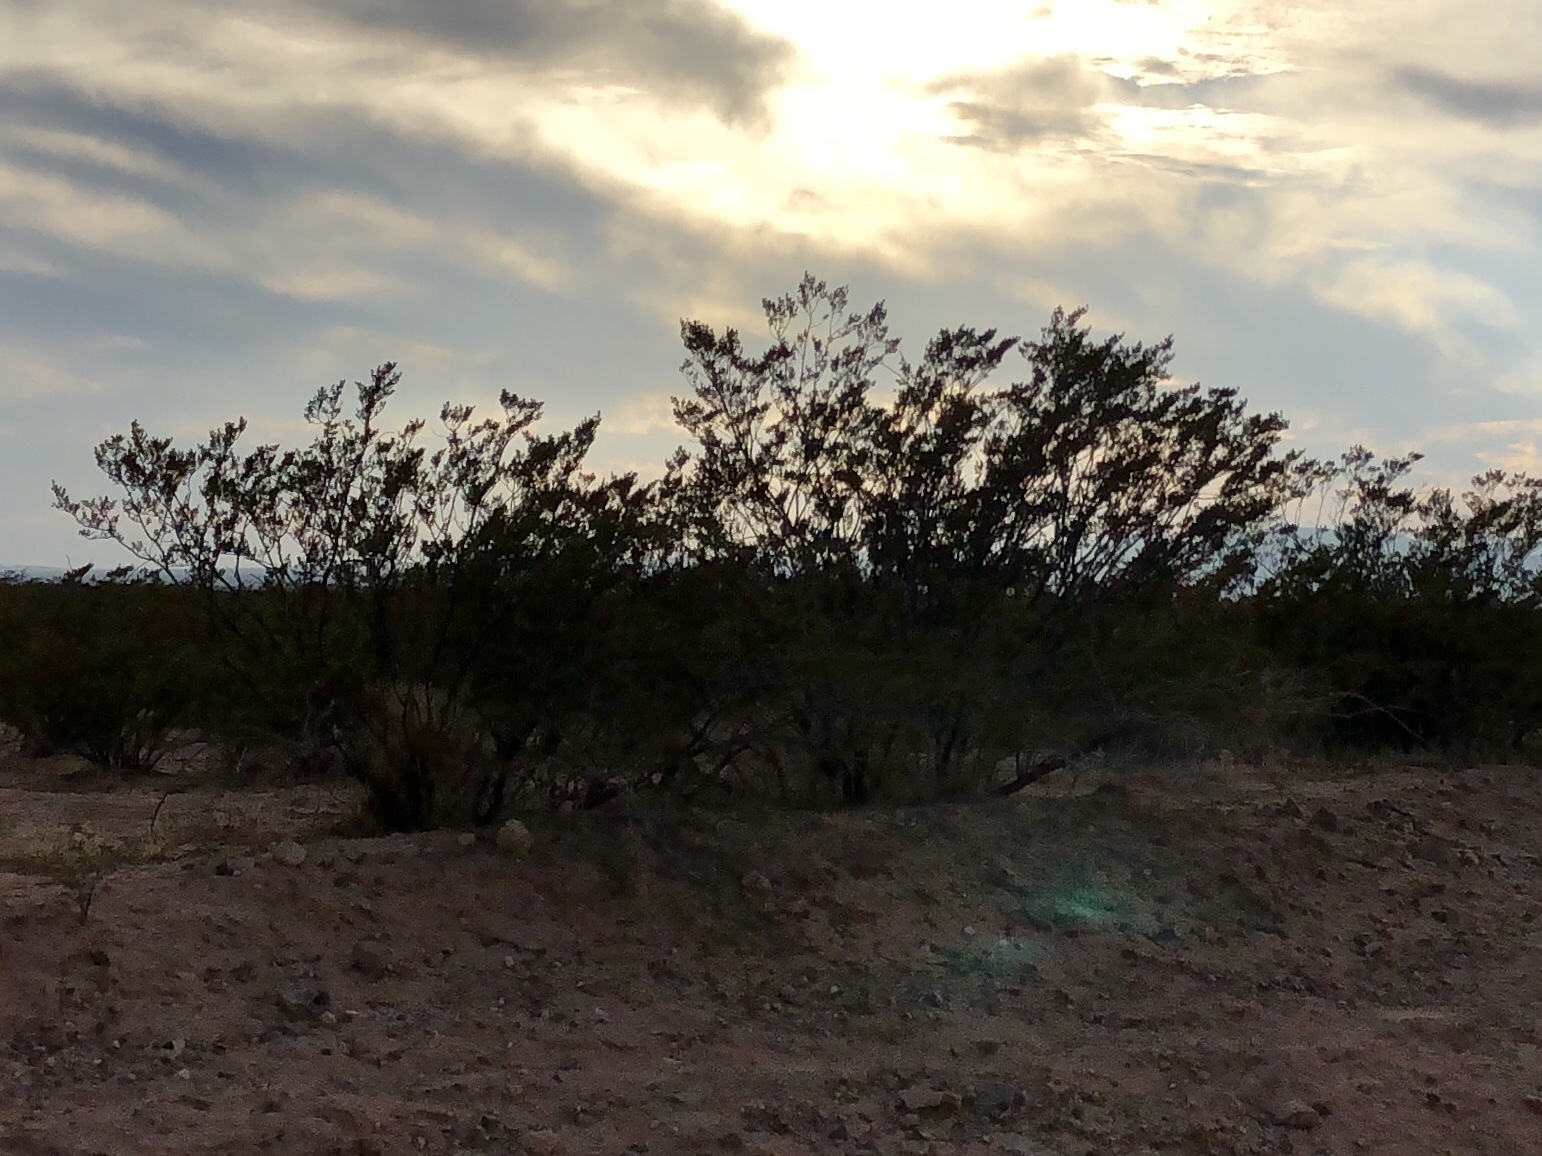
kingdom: Plantae
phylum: Tracheophyta
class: Magnoliopsida
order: Zygophyllales
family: Zygophyllaceae
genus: Larrea
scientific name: Larrea tridentata
